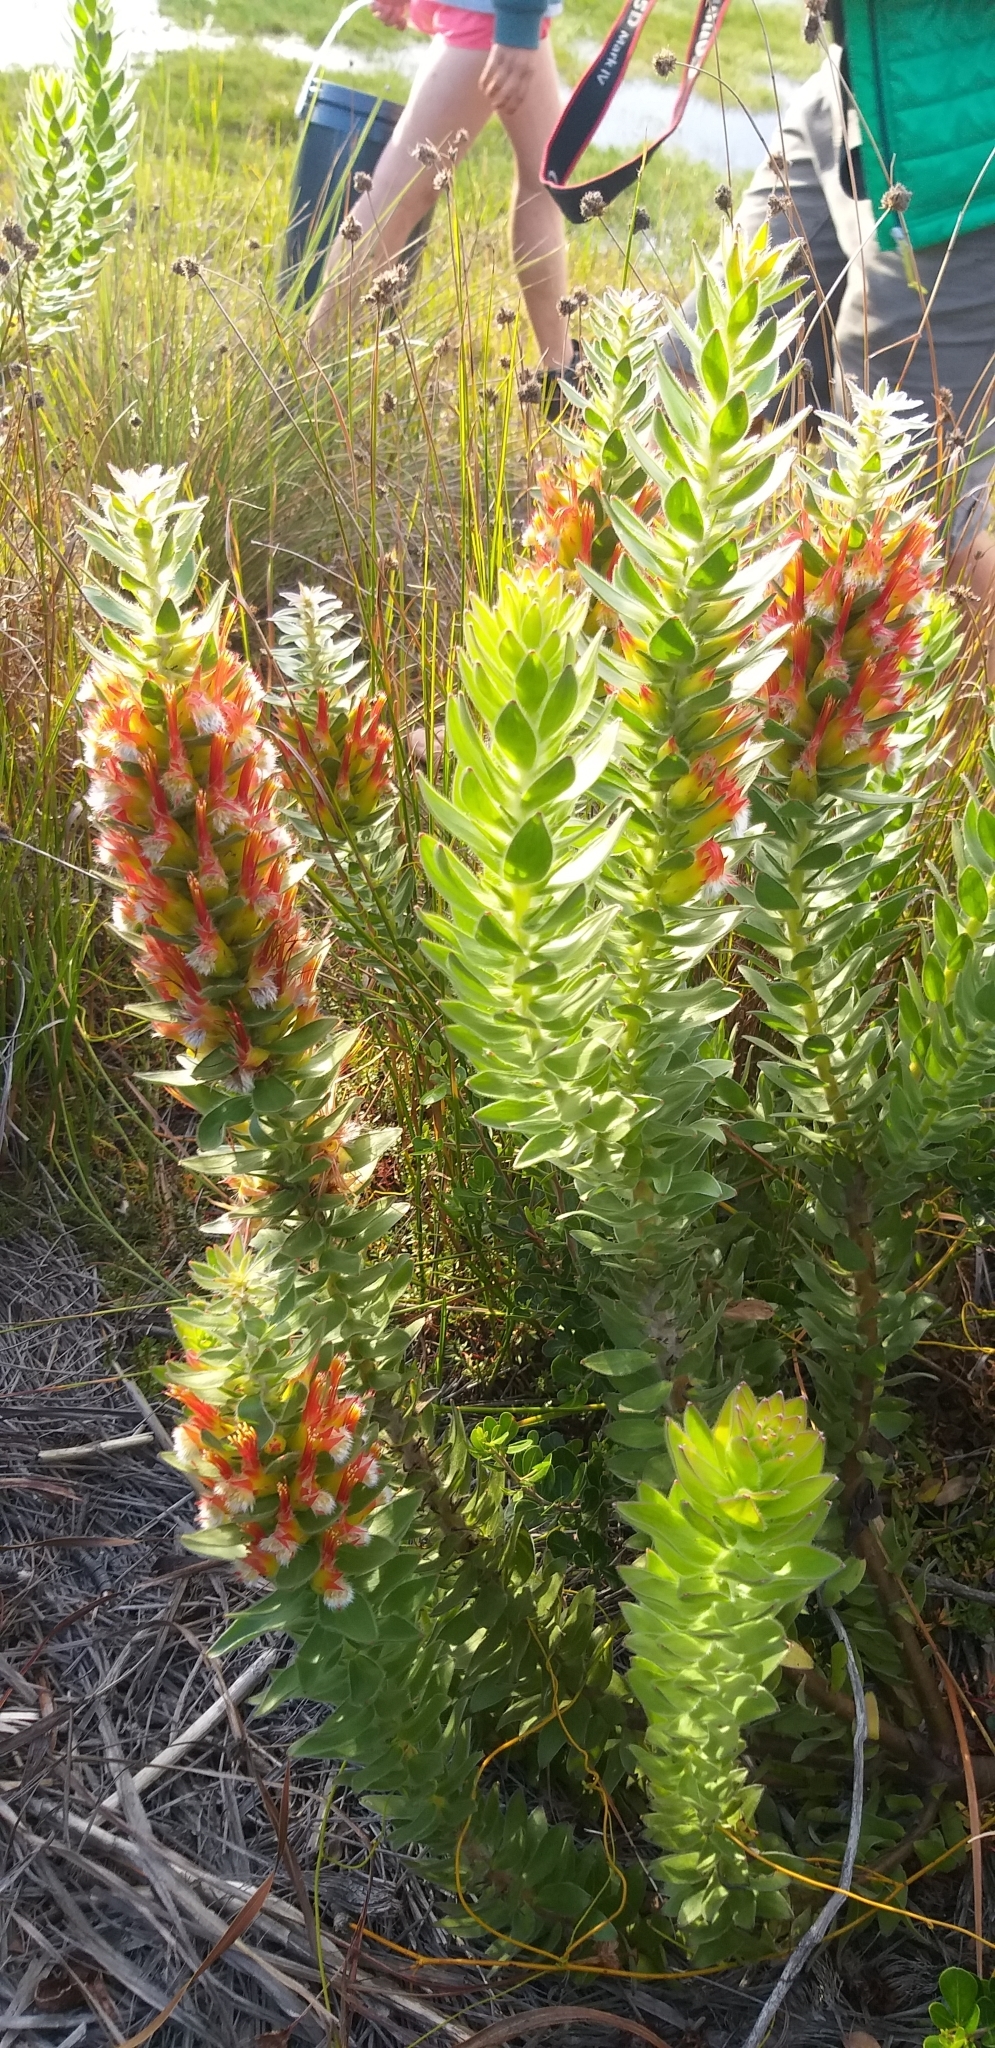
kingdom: Plantae
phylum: Tracheophyta
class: Magnoliopsida
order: Proteales
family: Proteaceae
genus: Mimetes
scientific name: Mimetes hirtus
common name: Marsh pagoda
